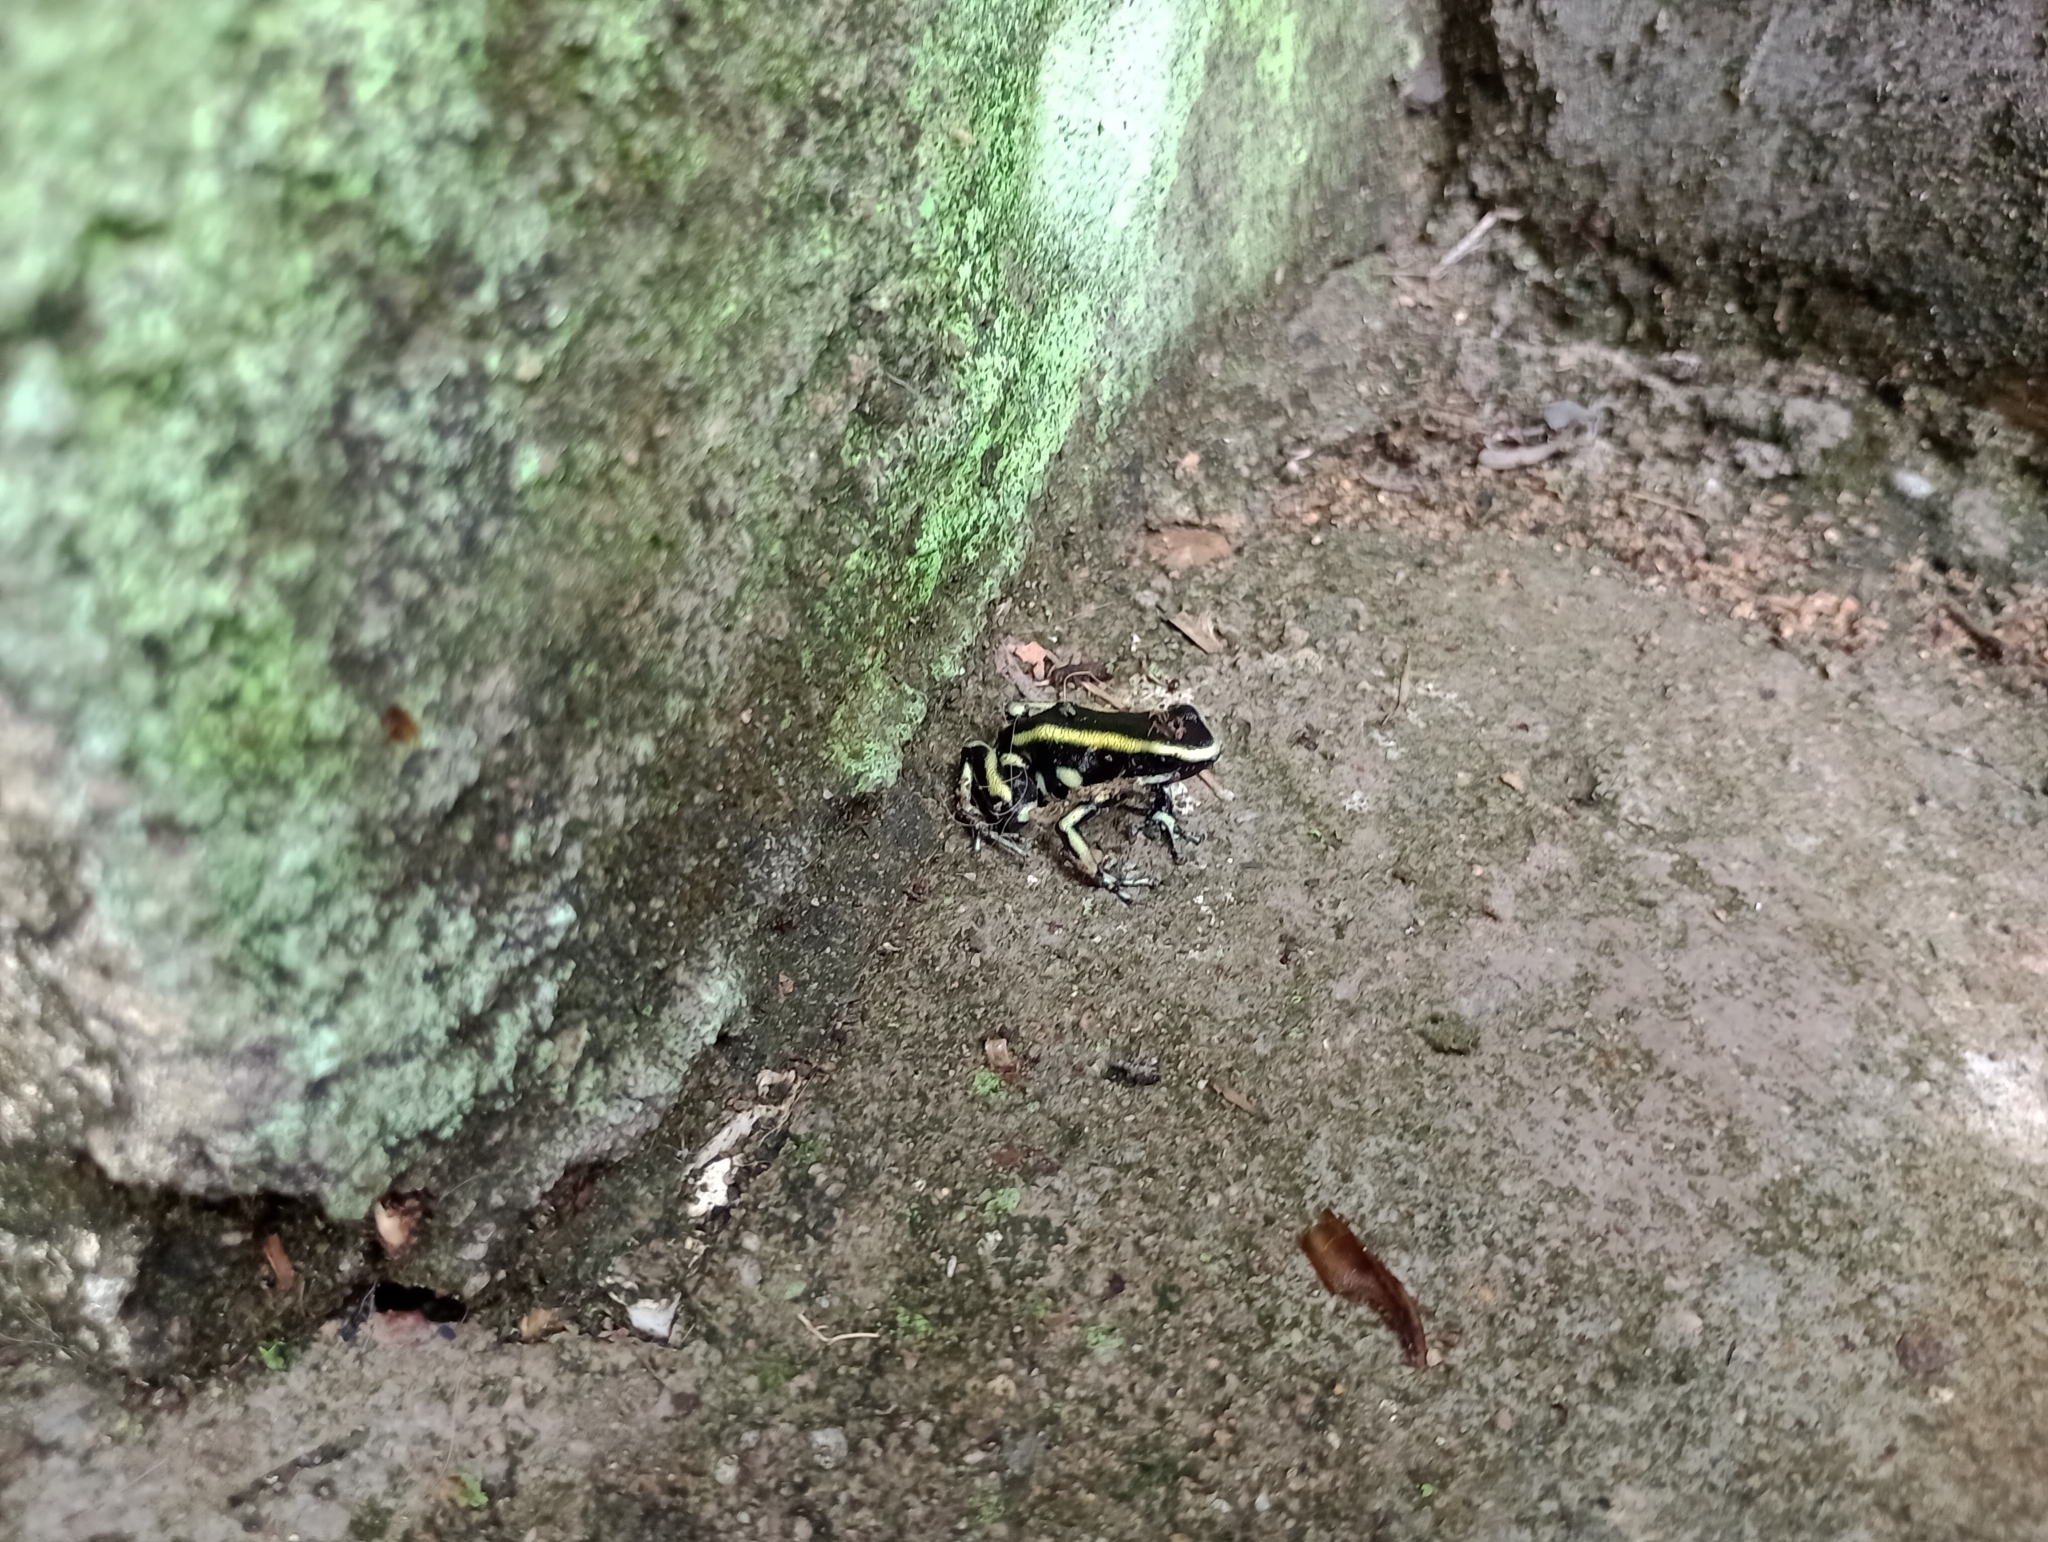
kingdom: Animalia
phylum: Chordata
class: Amphibia
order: Anura
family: Dendrobatidae
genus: Dendrobates
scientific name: Dendrobates truncatus
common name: Yellow-striped poison frog
